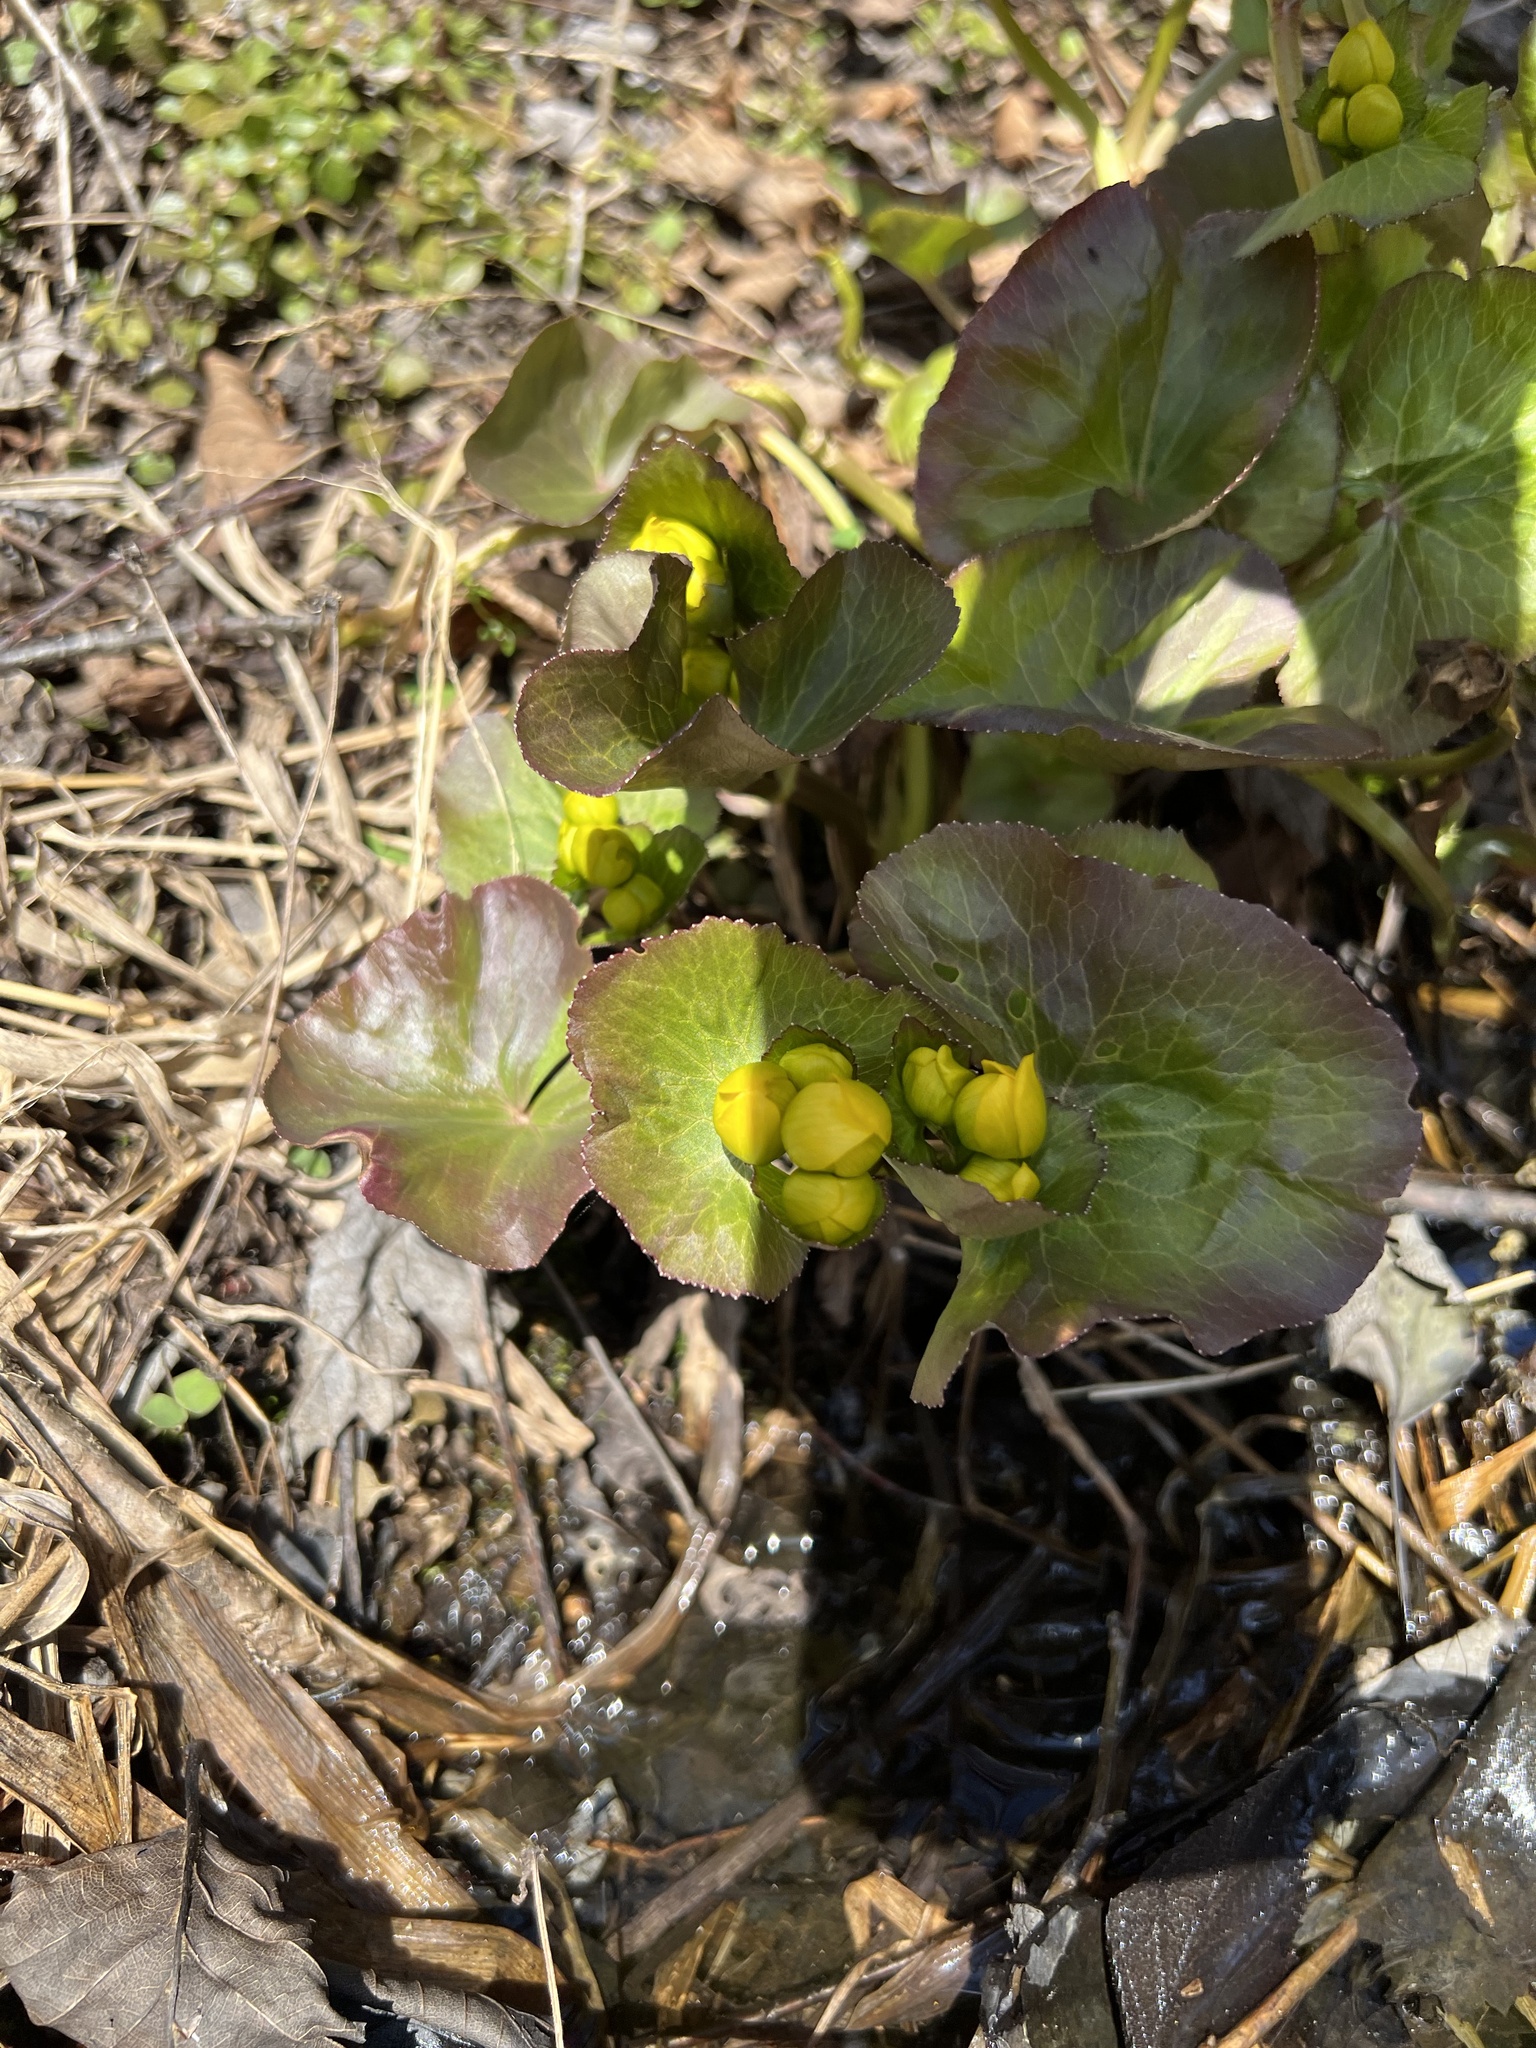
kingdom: Plantae
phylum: Tracheophyta
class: Magnoliopsida
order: Ranunculales
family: Ranunculaceae
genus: Caltha
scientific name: Caltha palustris
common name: Marsh marigold
